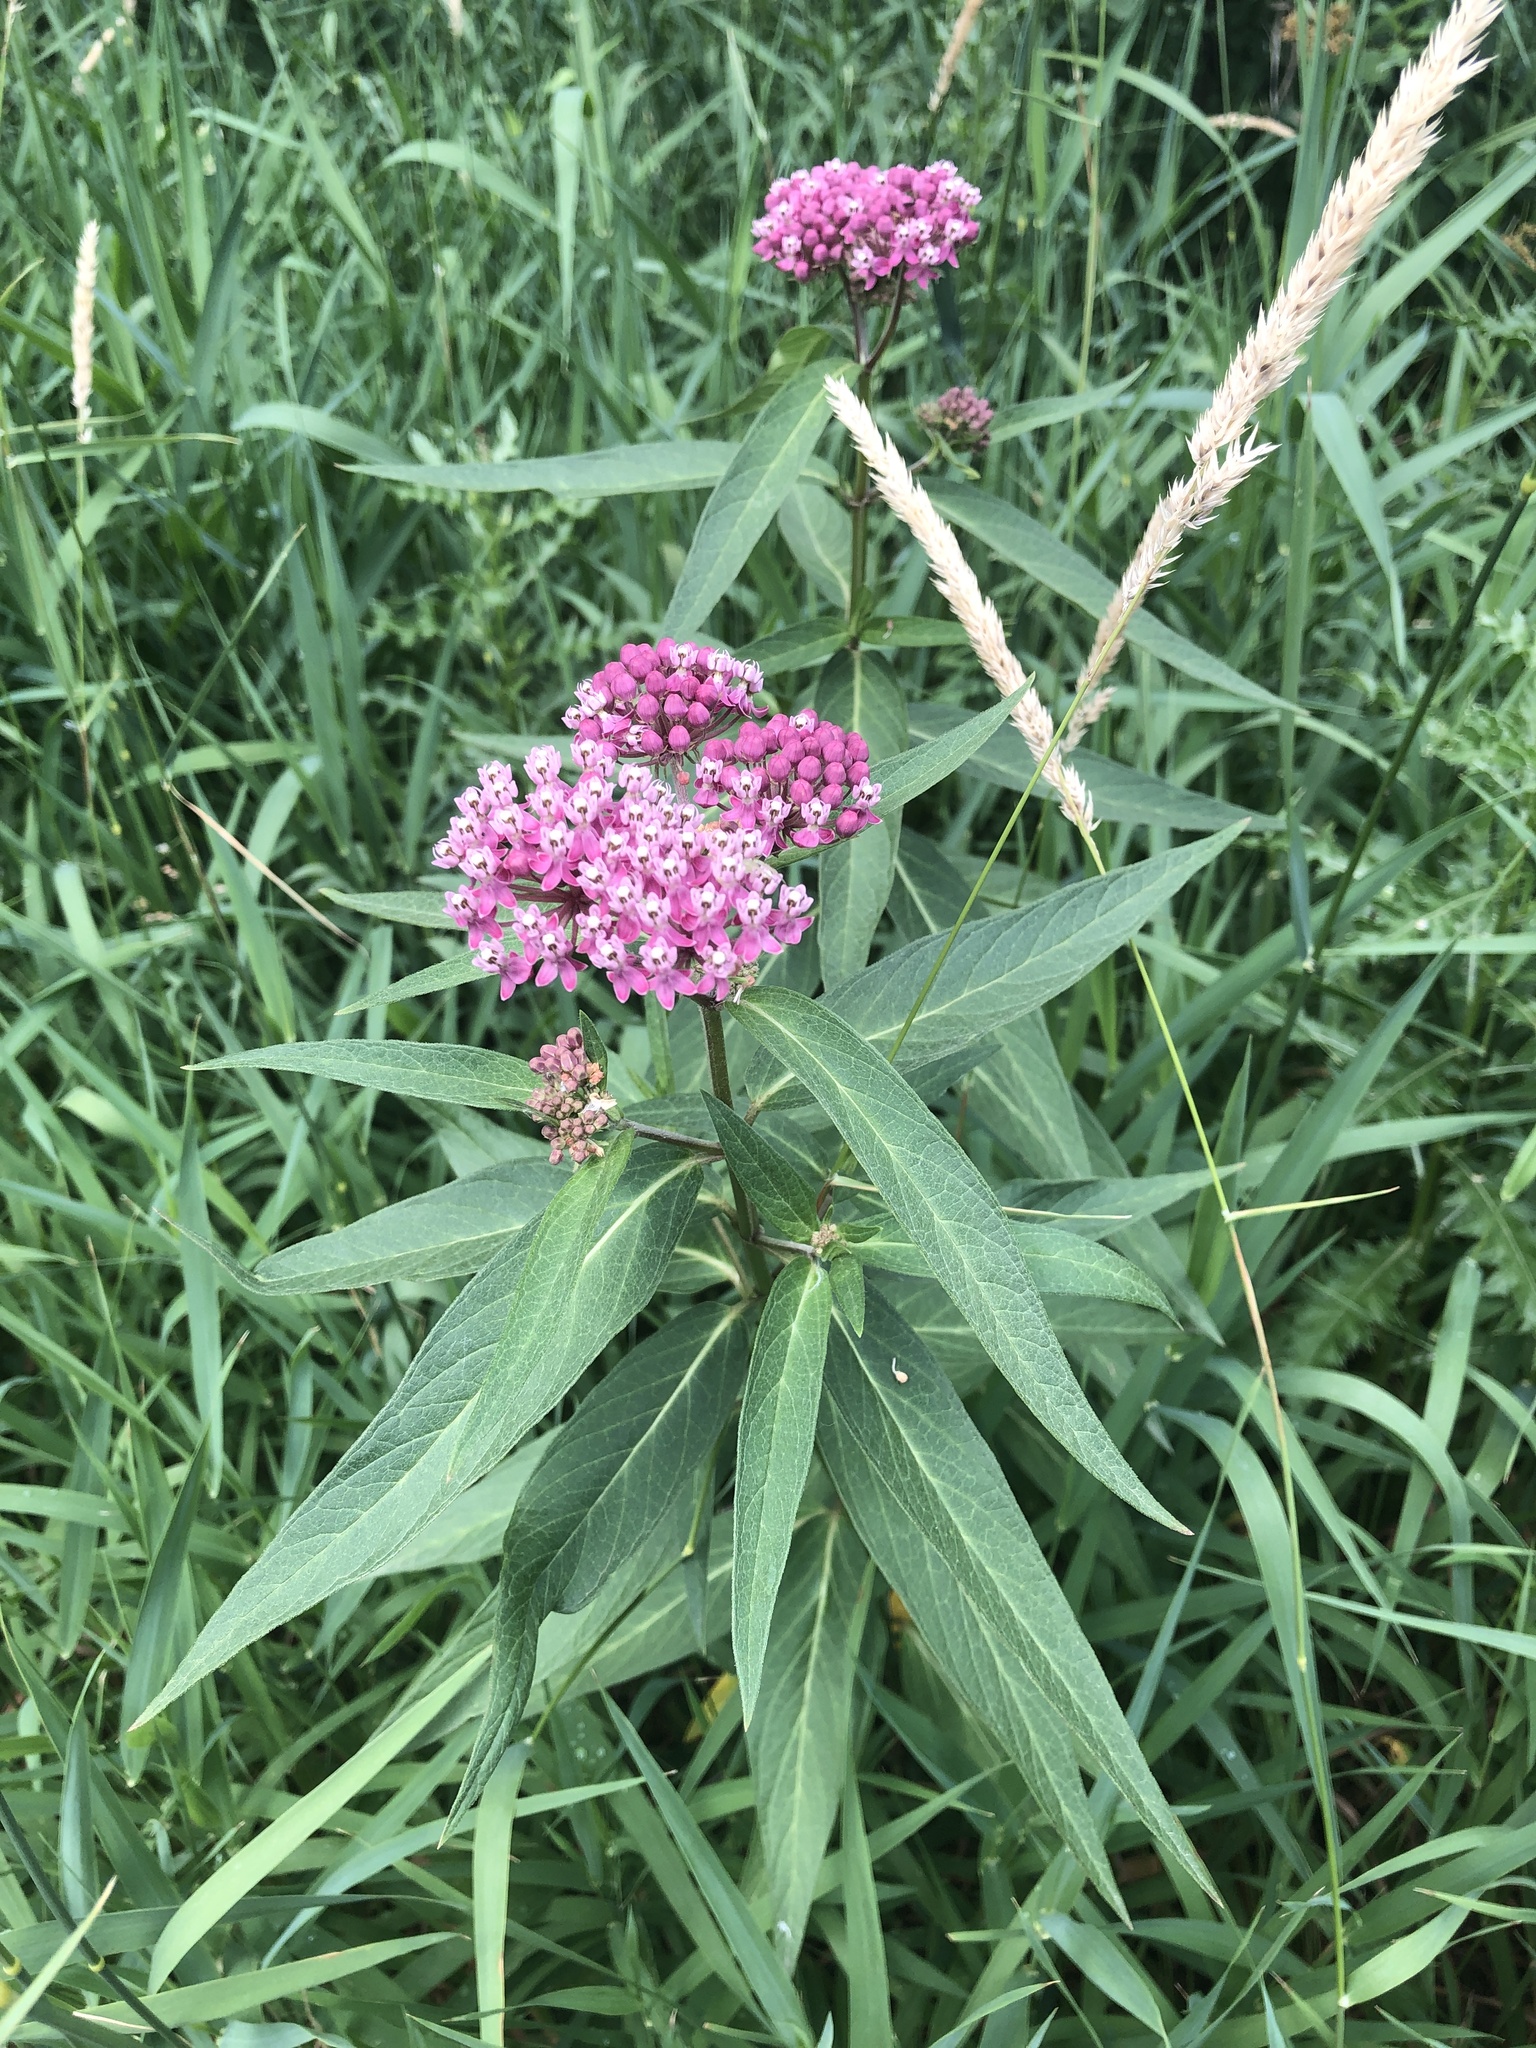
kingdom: Plantae
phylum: Tracheophyta
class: Magnoliopsida
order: Gentianales
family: Apocynaceae
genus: Asclepias
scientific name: Asclepias incarnata
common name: Swamp milkweed
